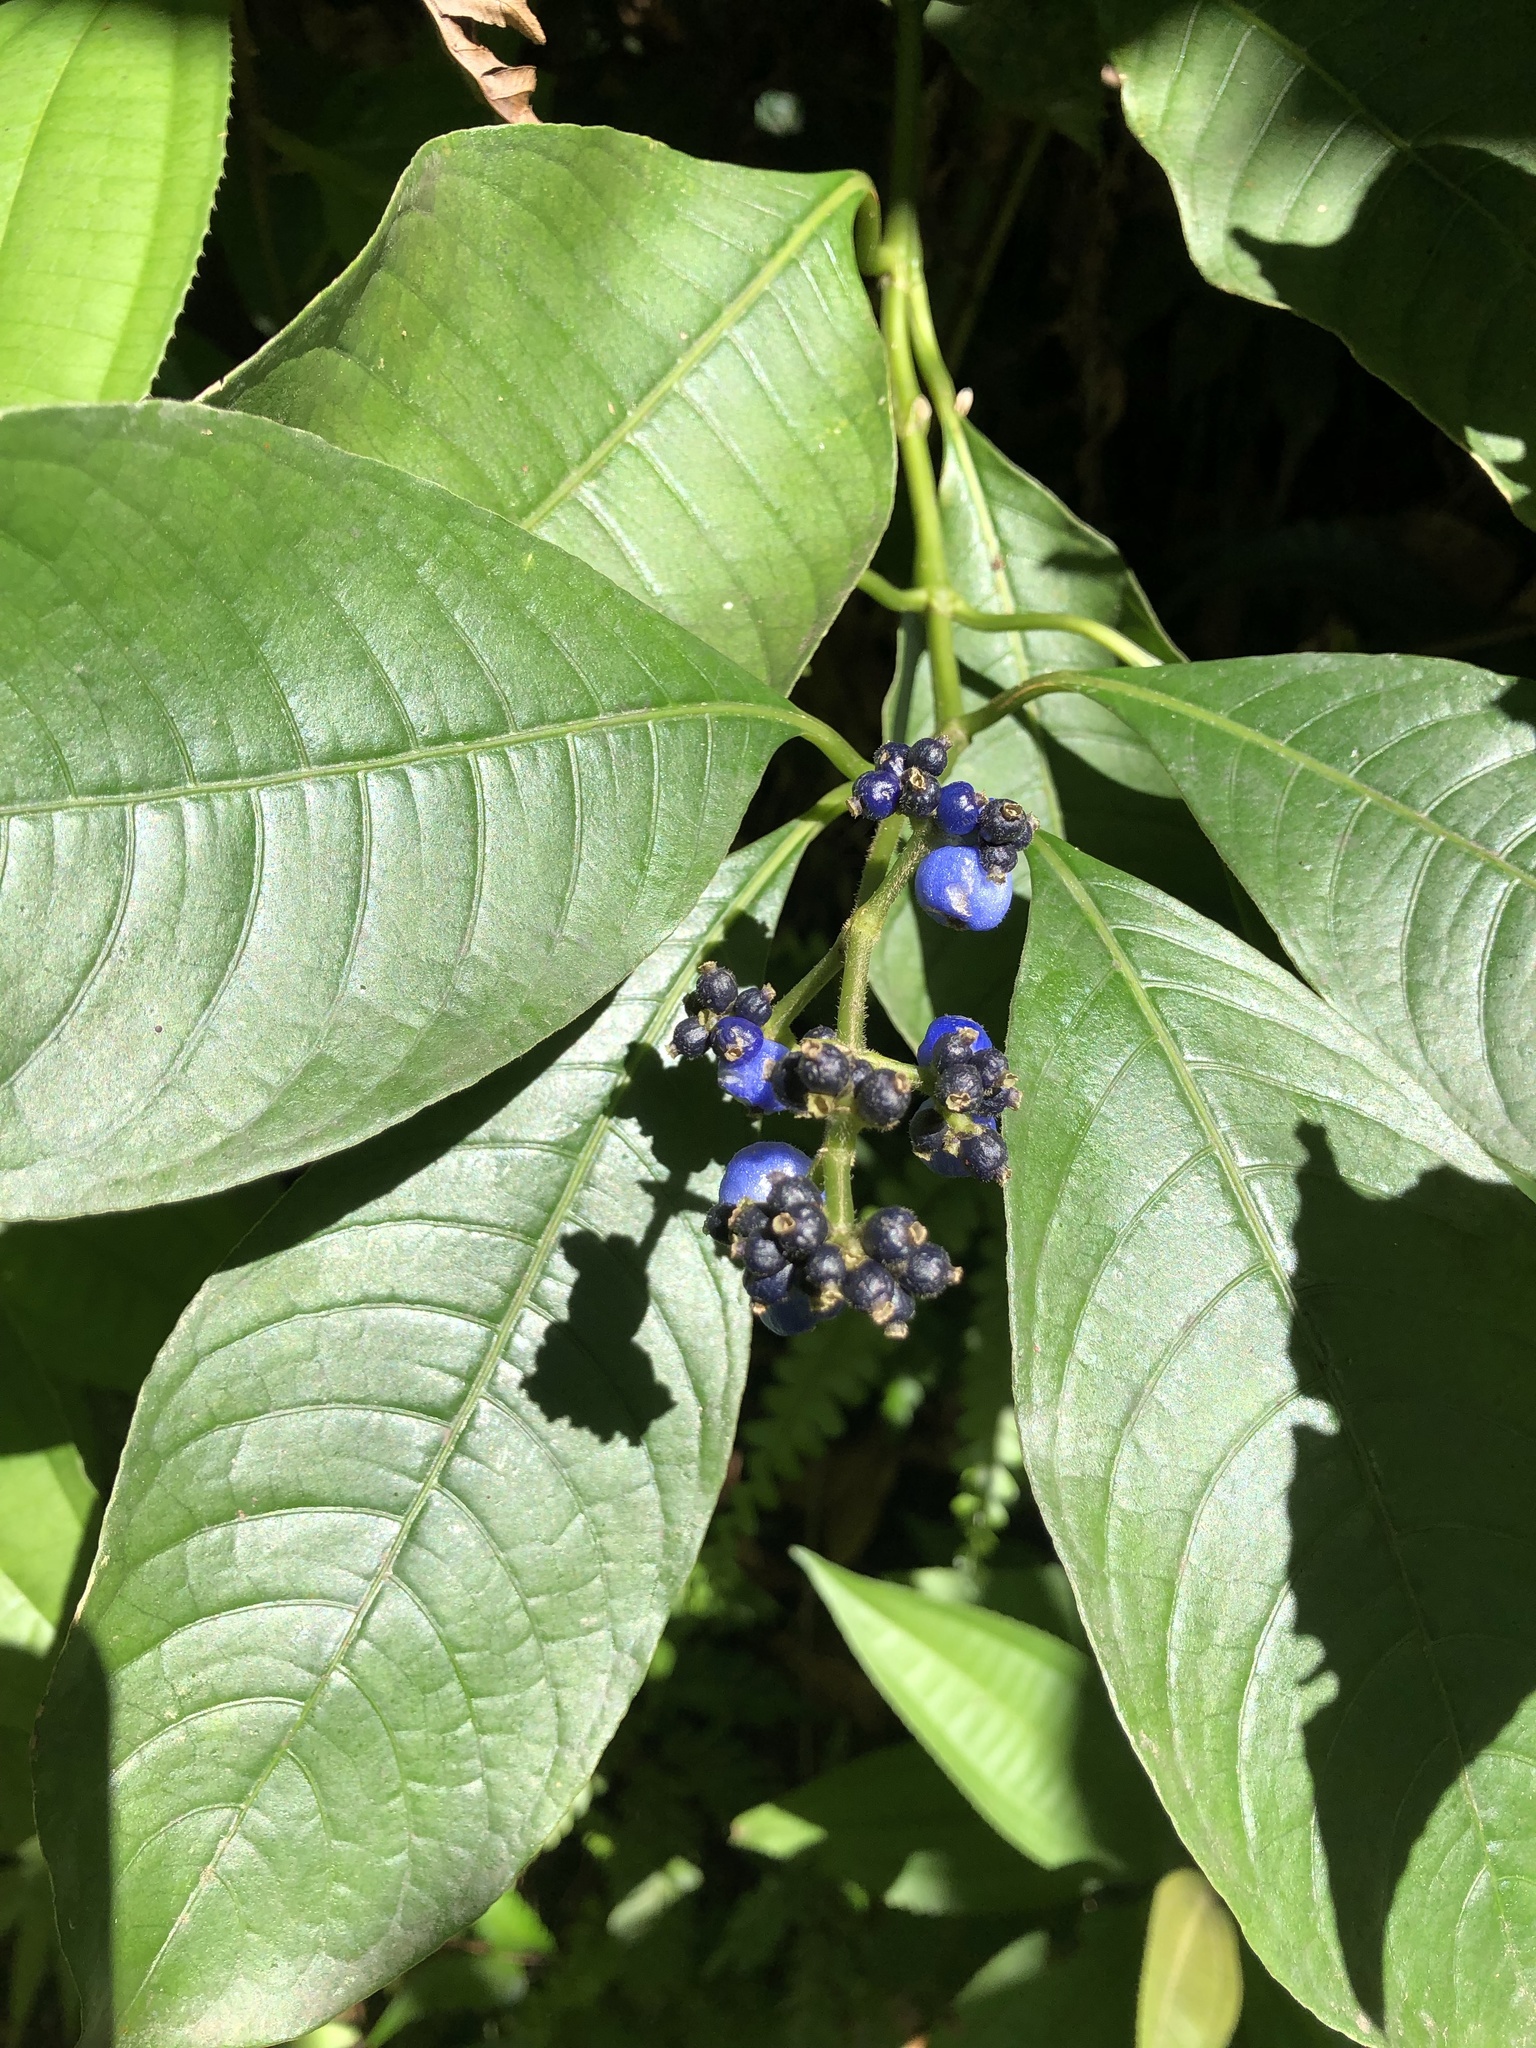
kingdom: Plantae
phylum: Tracheophyta
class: Magnoliopsida
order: Gentianales
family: Rubiaceae
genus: Palicourea
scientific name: Palicourea brachiata
